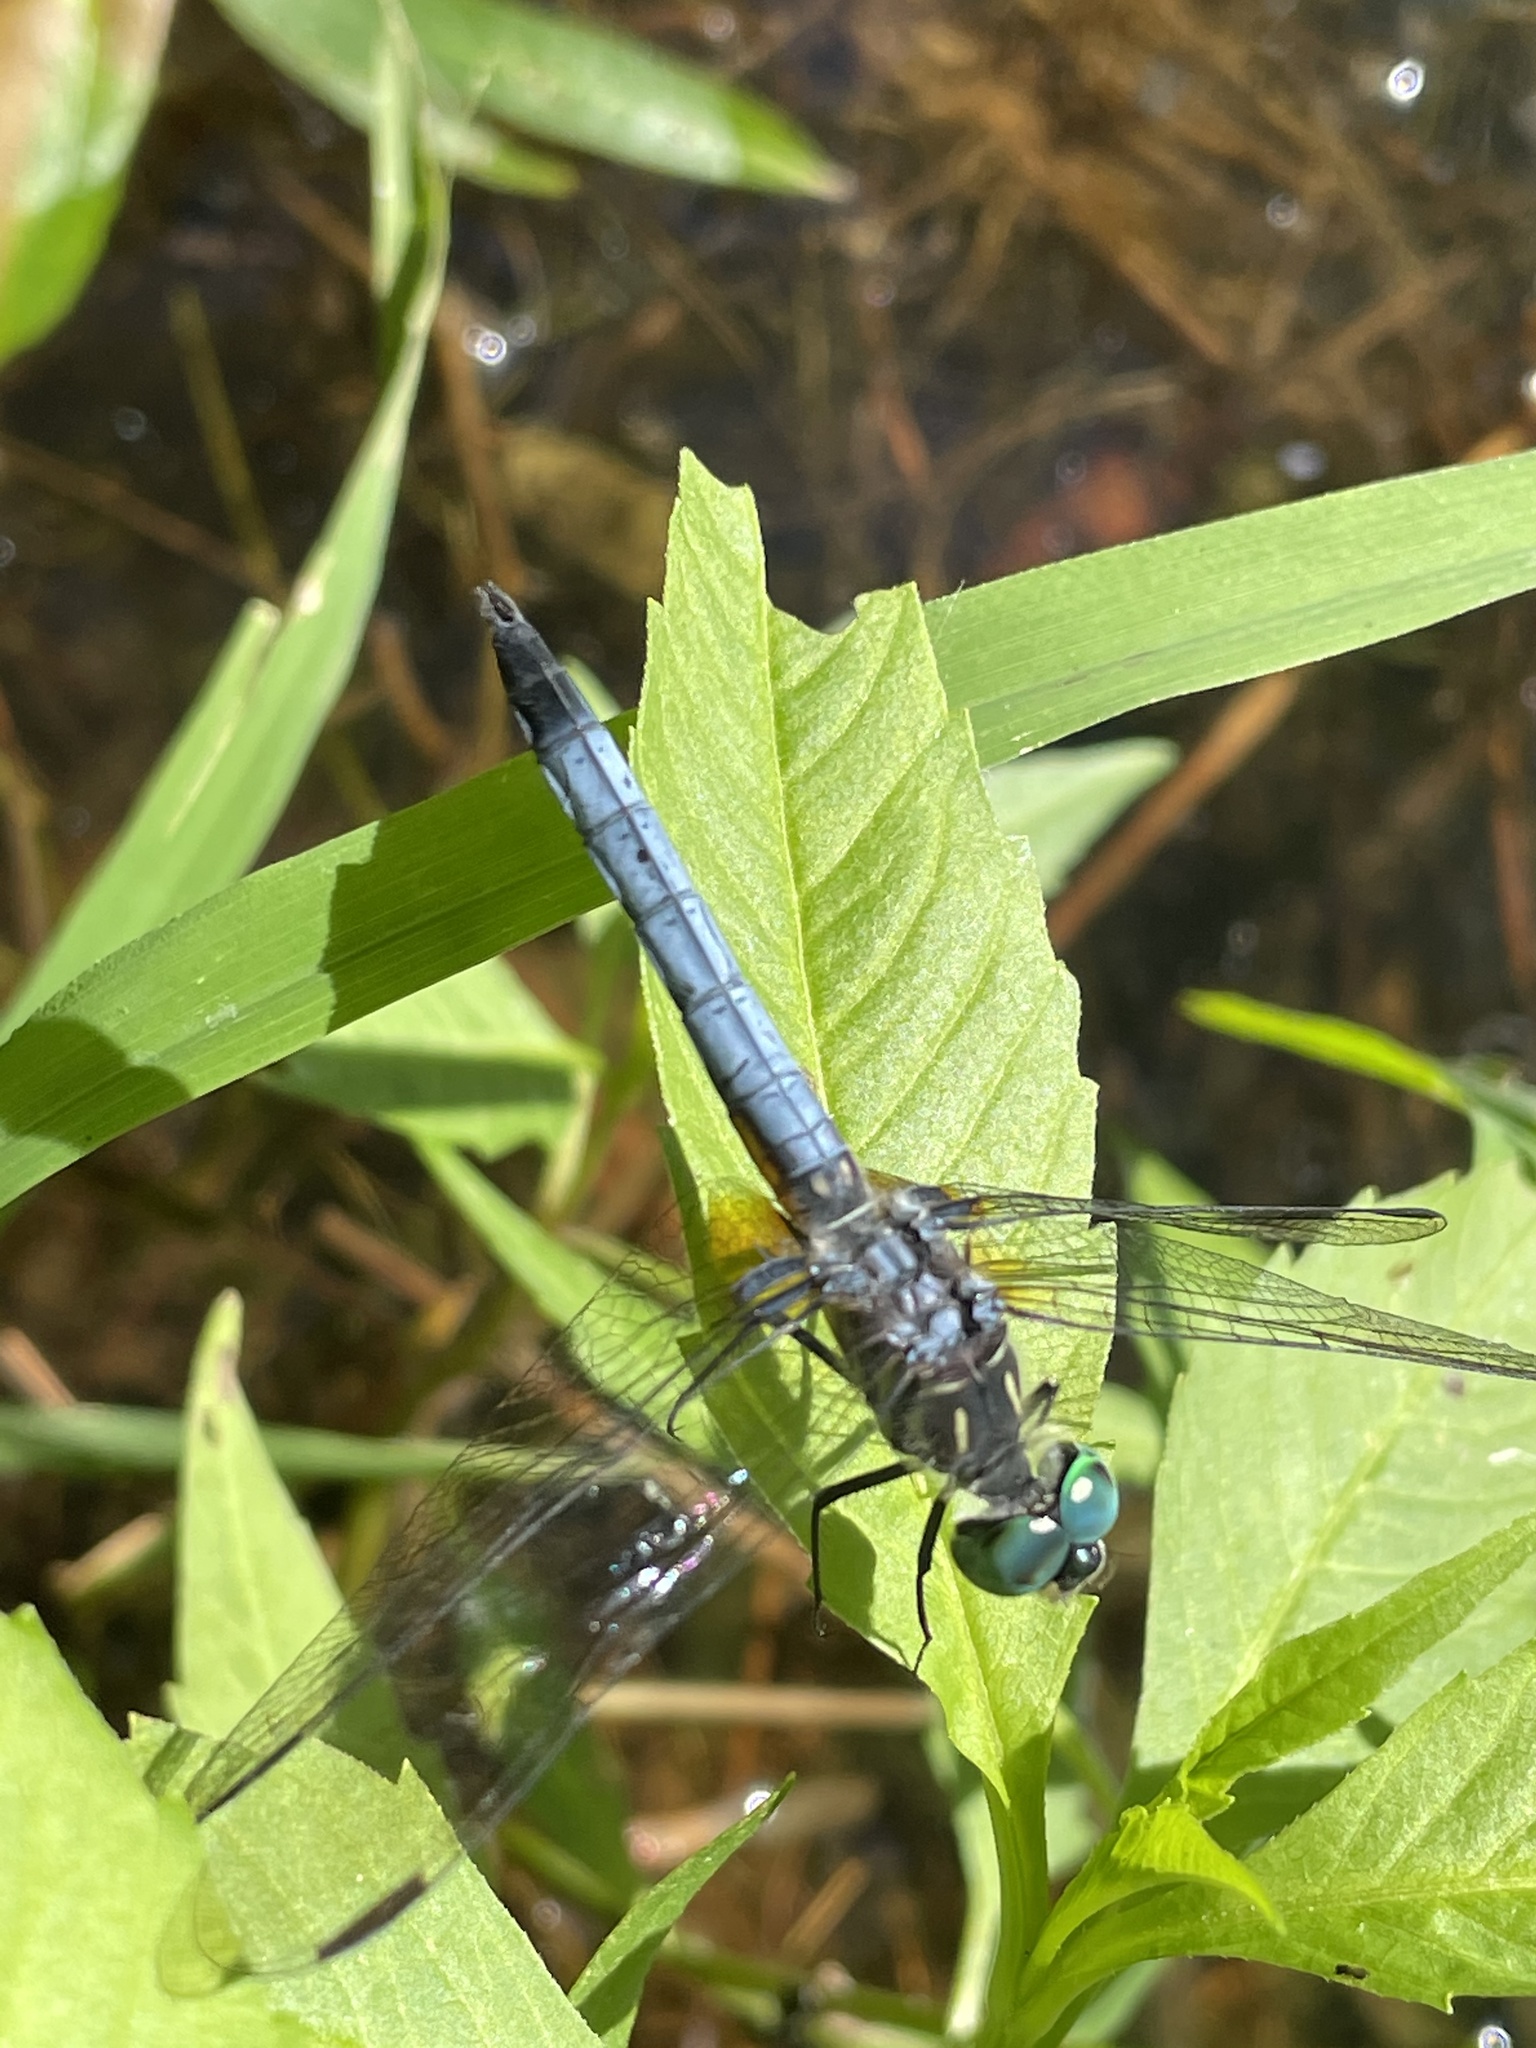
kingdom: Animalia
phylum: Arthropoda
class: Insecta
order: Odonata
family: Libellulidae
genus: Pachydiplax
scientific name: Pachydiplax longipennis
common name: Blue dasher
